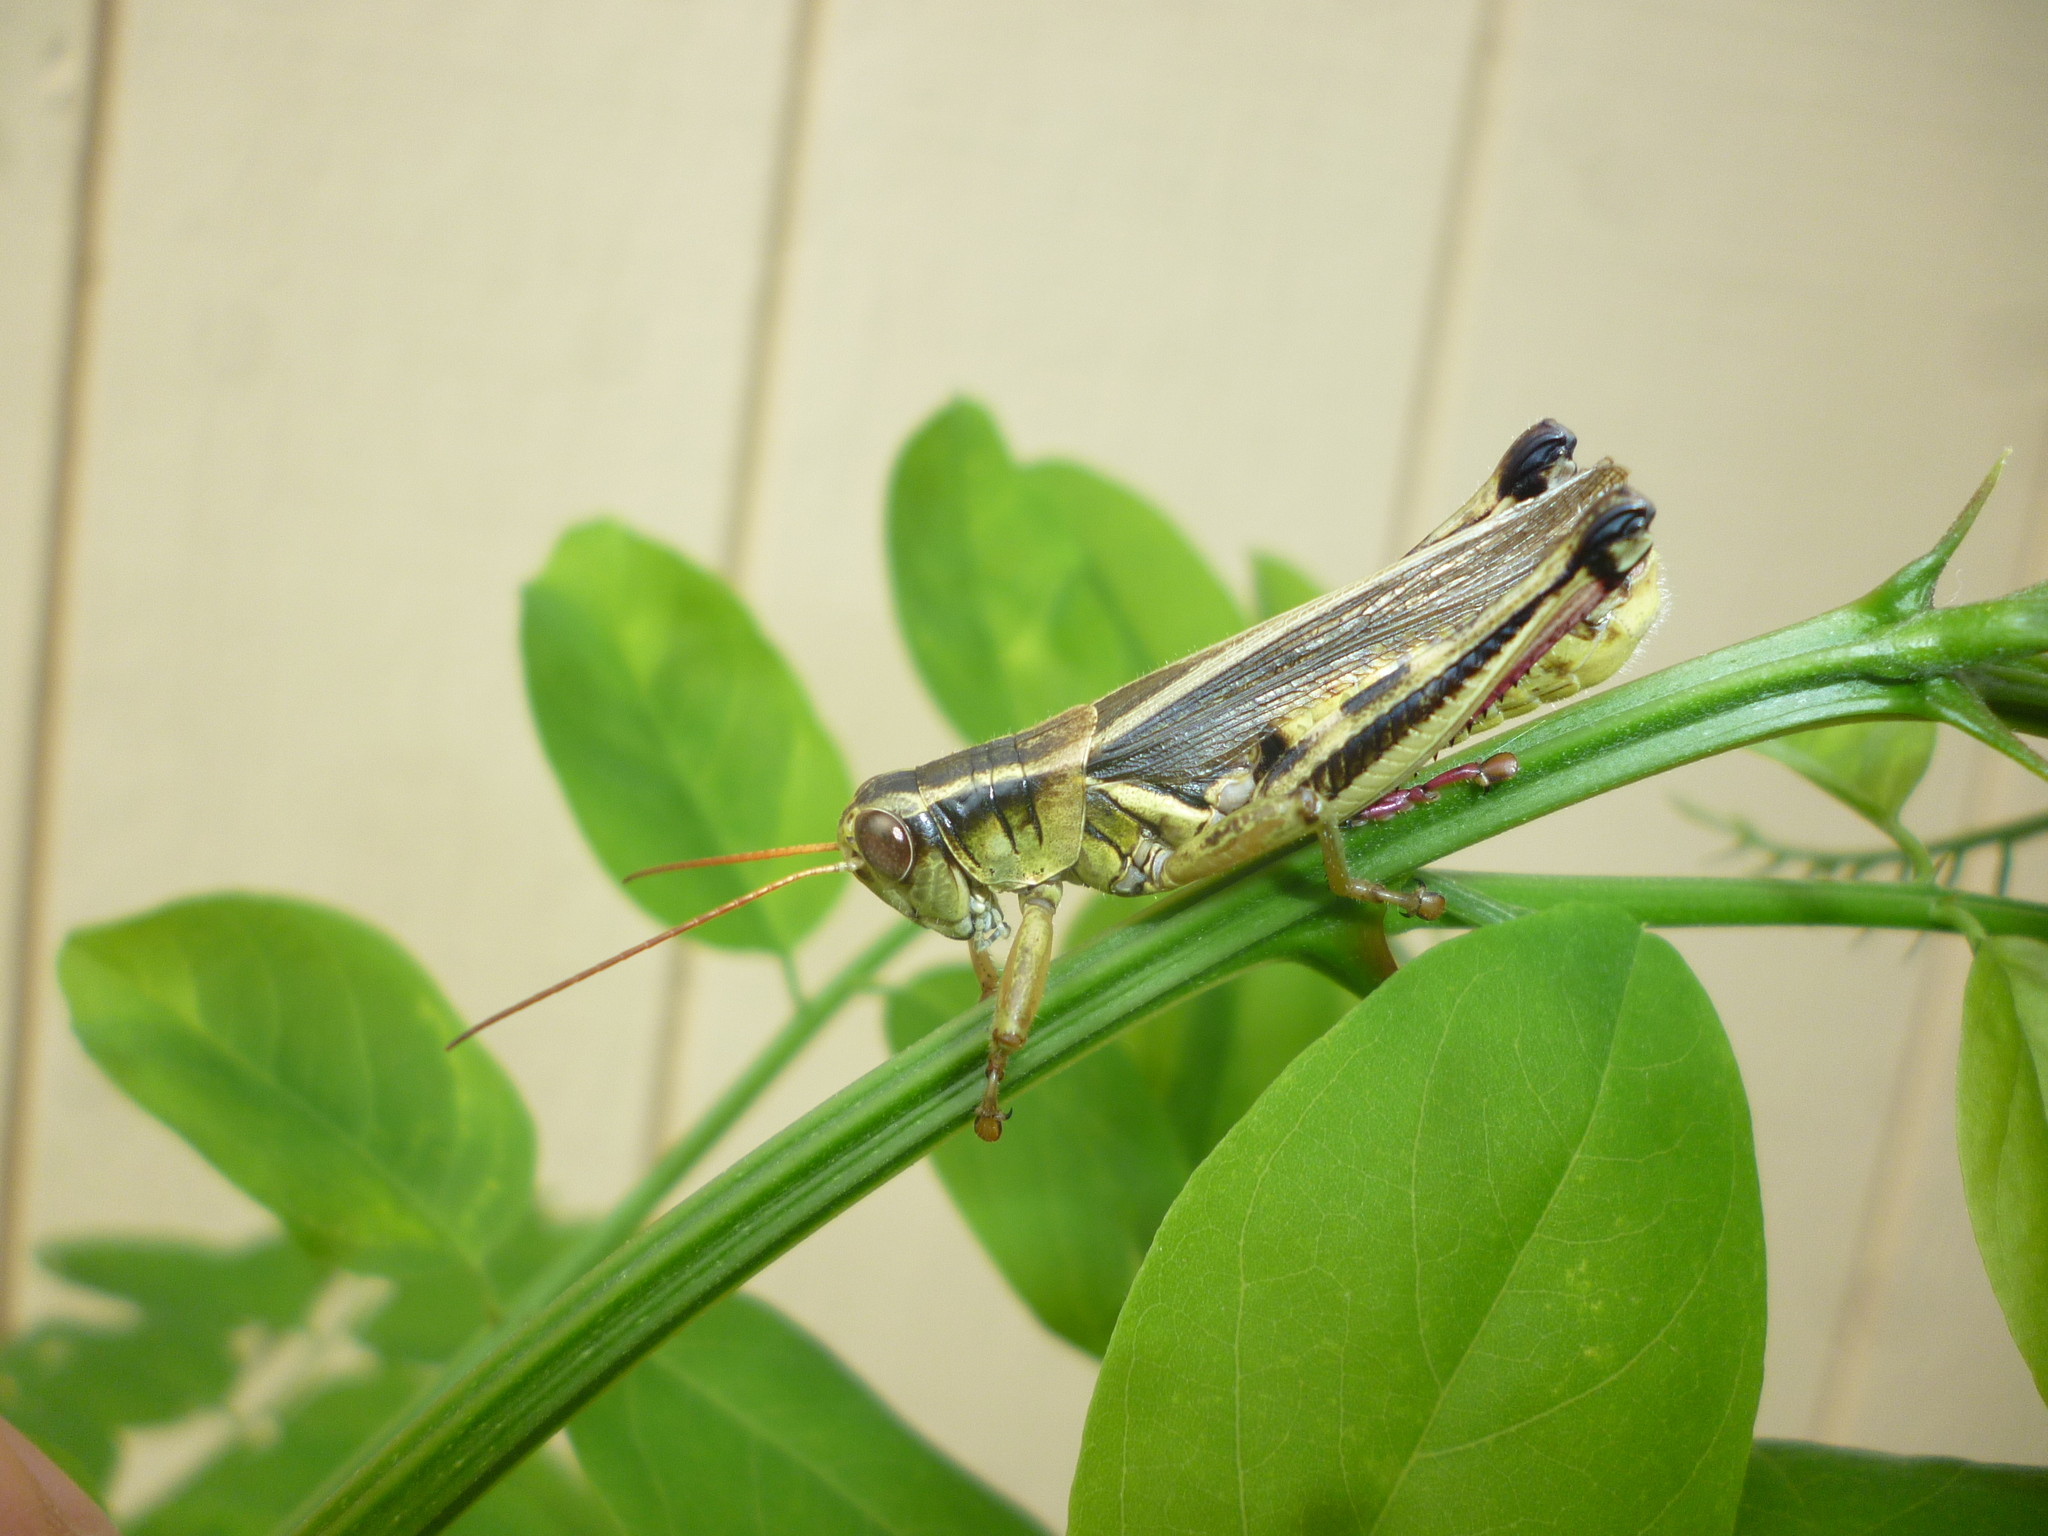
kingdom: Plantae
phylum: Tracheophyta
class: Magnoliopsida
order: Fabales
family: Fabaceae
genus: Robinia
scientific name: Robinia pseudoacacia
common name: Black locust
